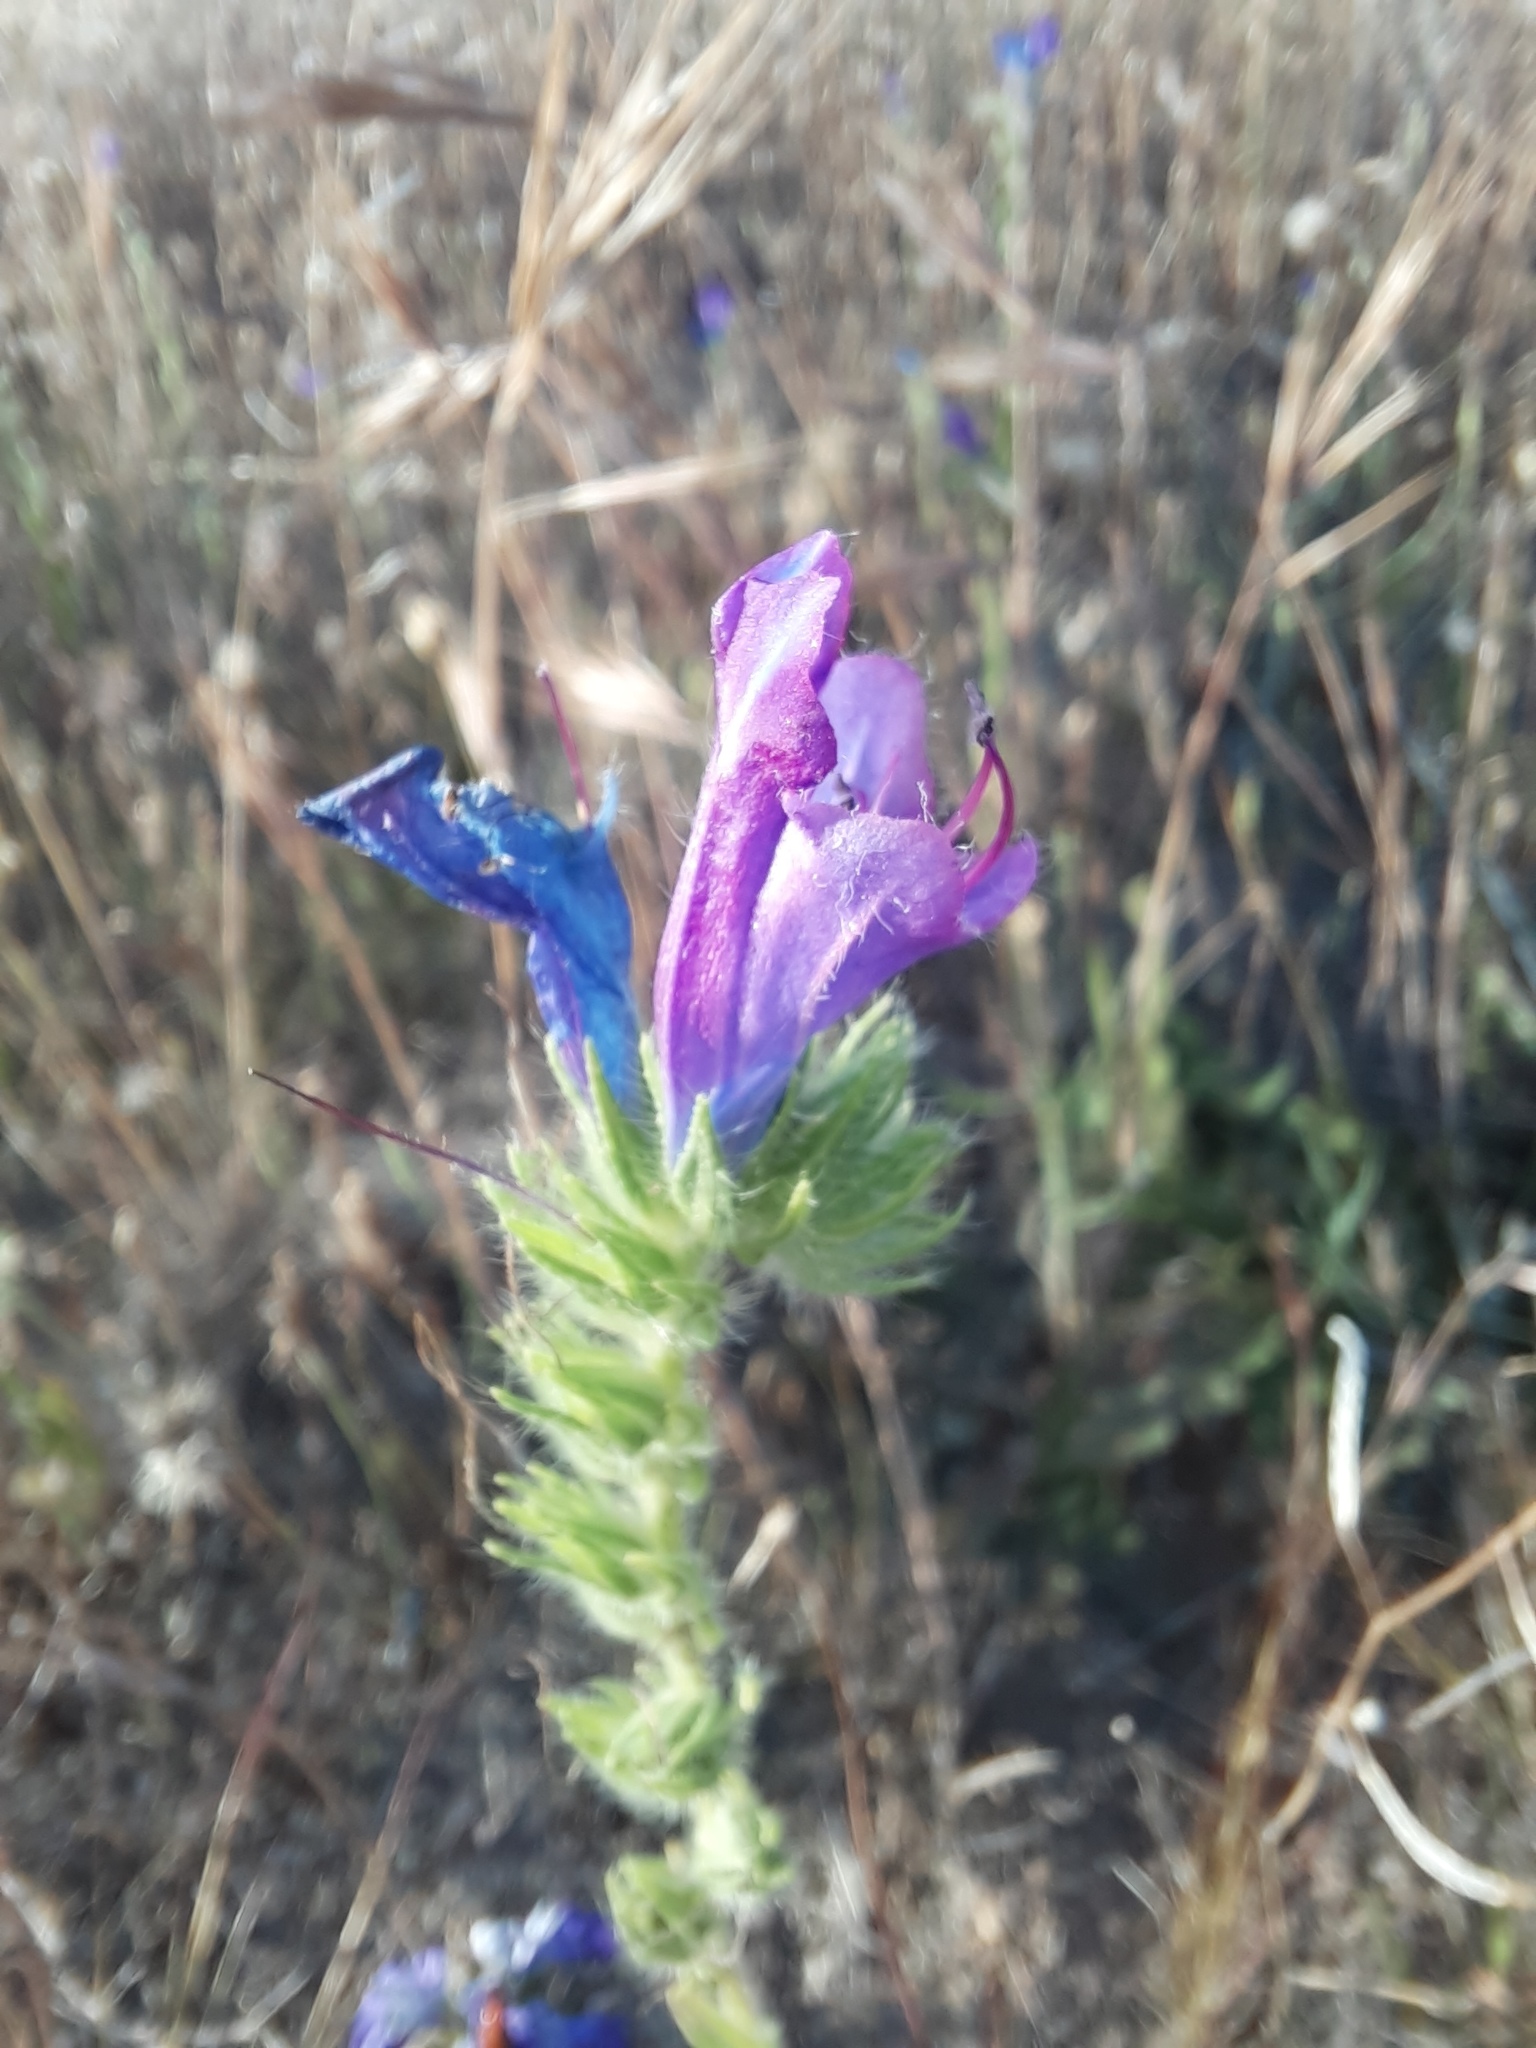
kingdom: Plantae
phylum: Tracheophyta
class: Magnoliopsida
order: Boraginales
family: Boraginaceae
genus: Echium
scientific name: Echium plantagineum
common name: Purple viper's-bugloss
